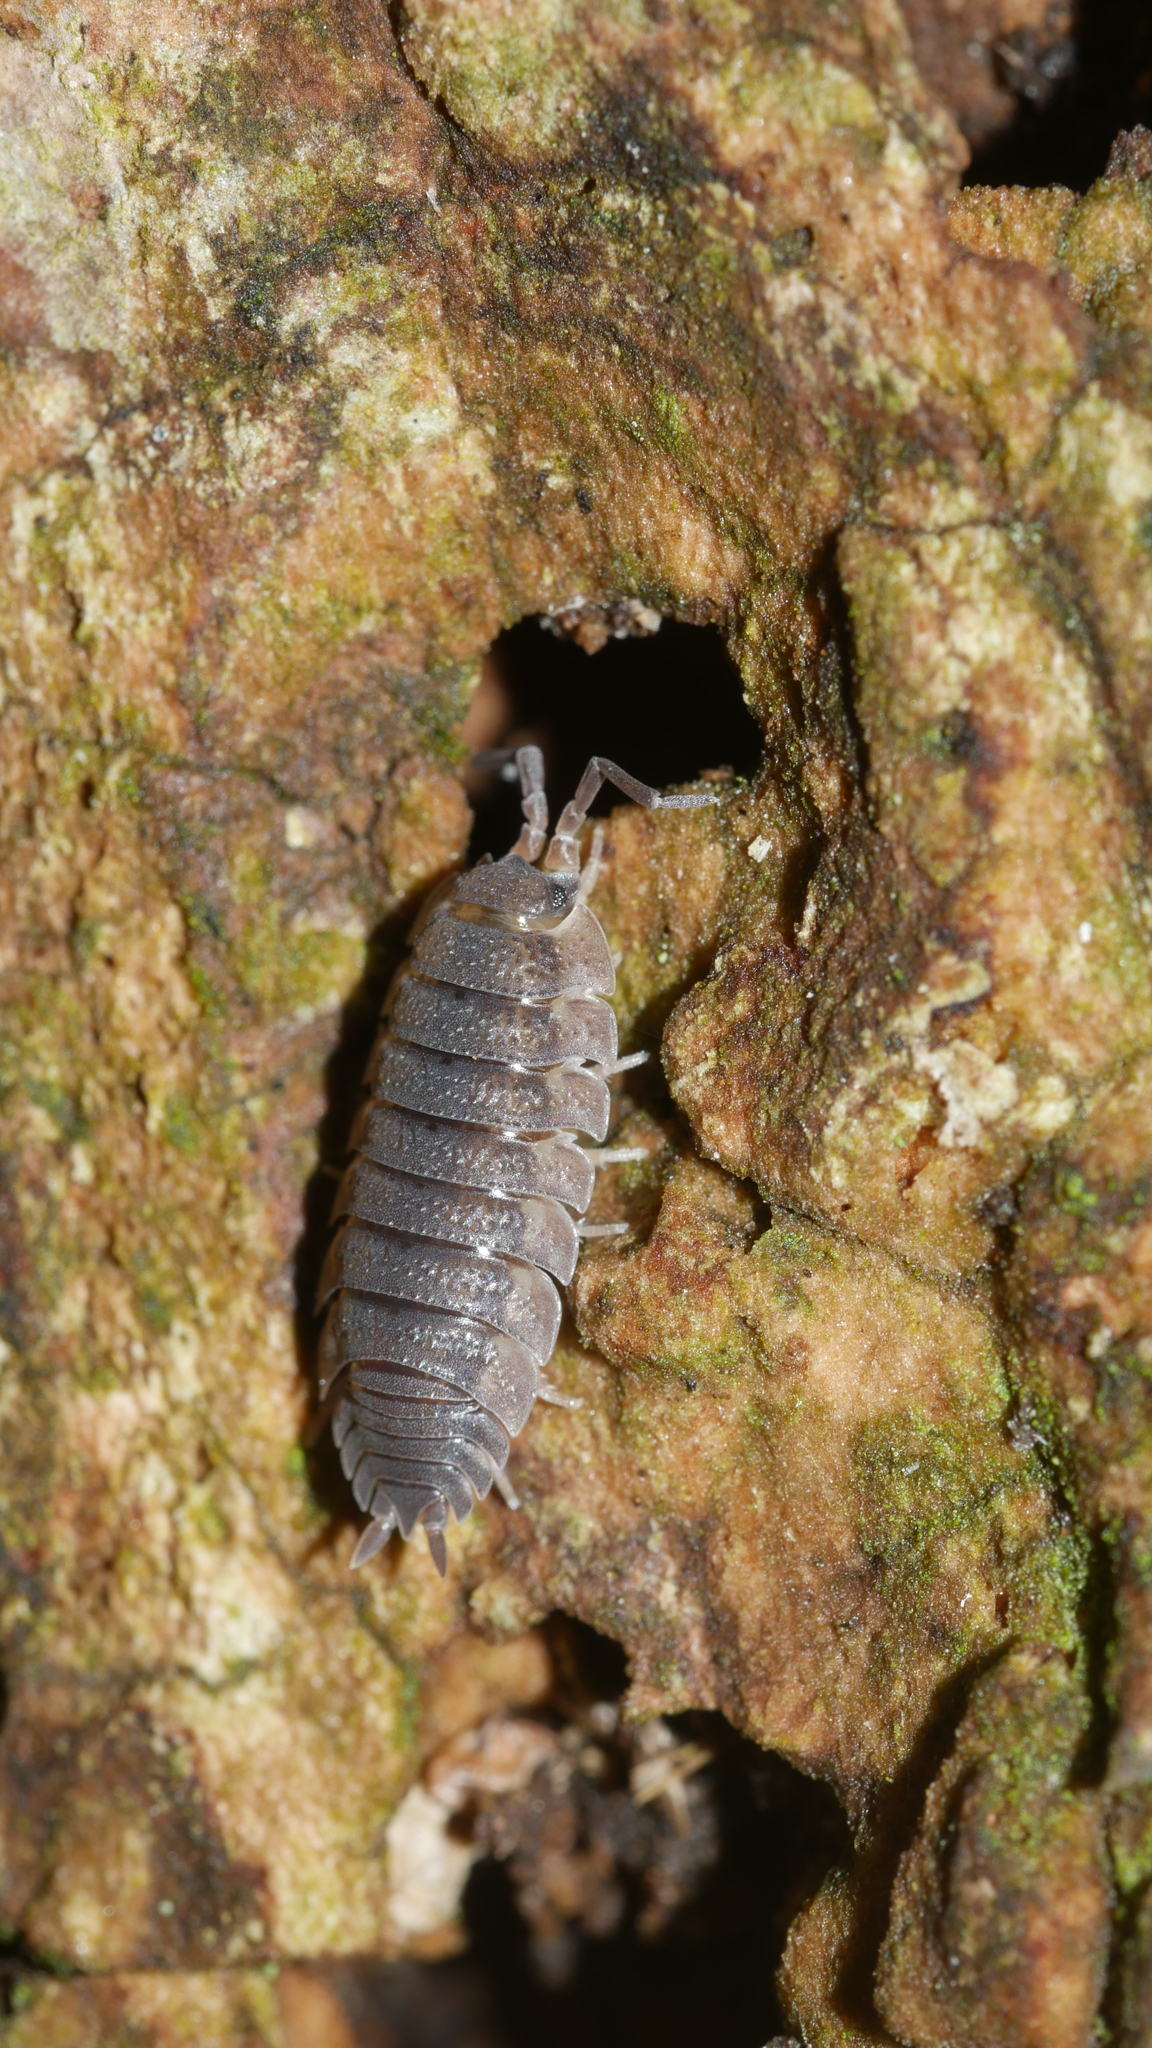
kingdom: Animalia
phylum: Arthropoda
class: Malacostraca
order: Isopoda
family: Porcellionidae
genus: Porcellio
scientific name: Porcellio scaber
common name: Common rough woodlouse
